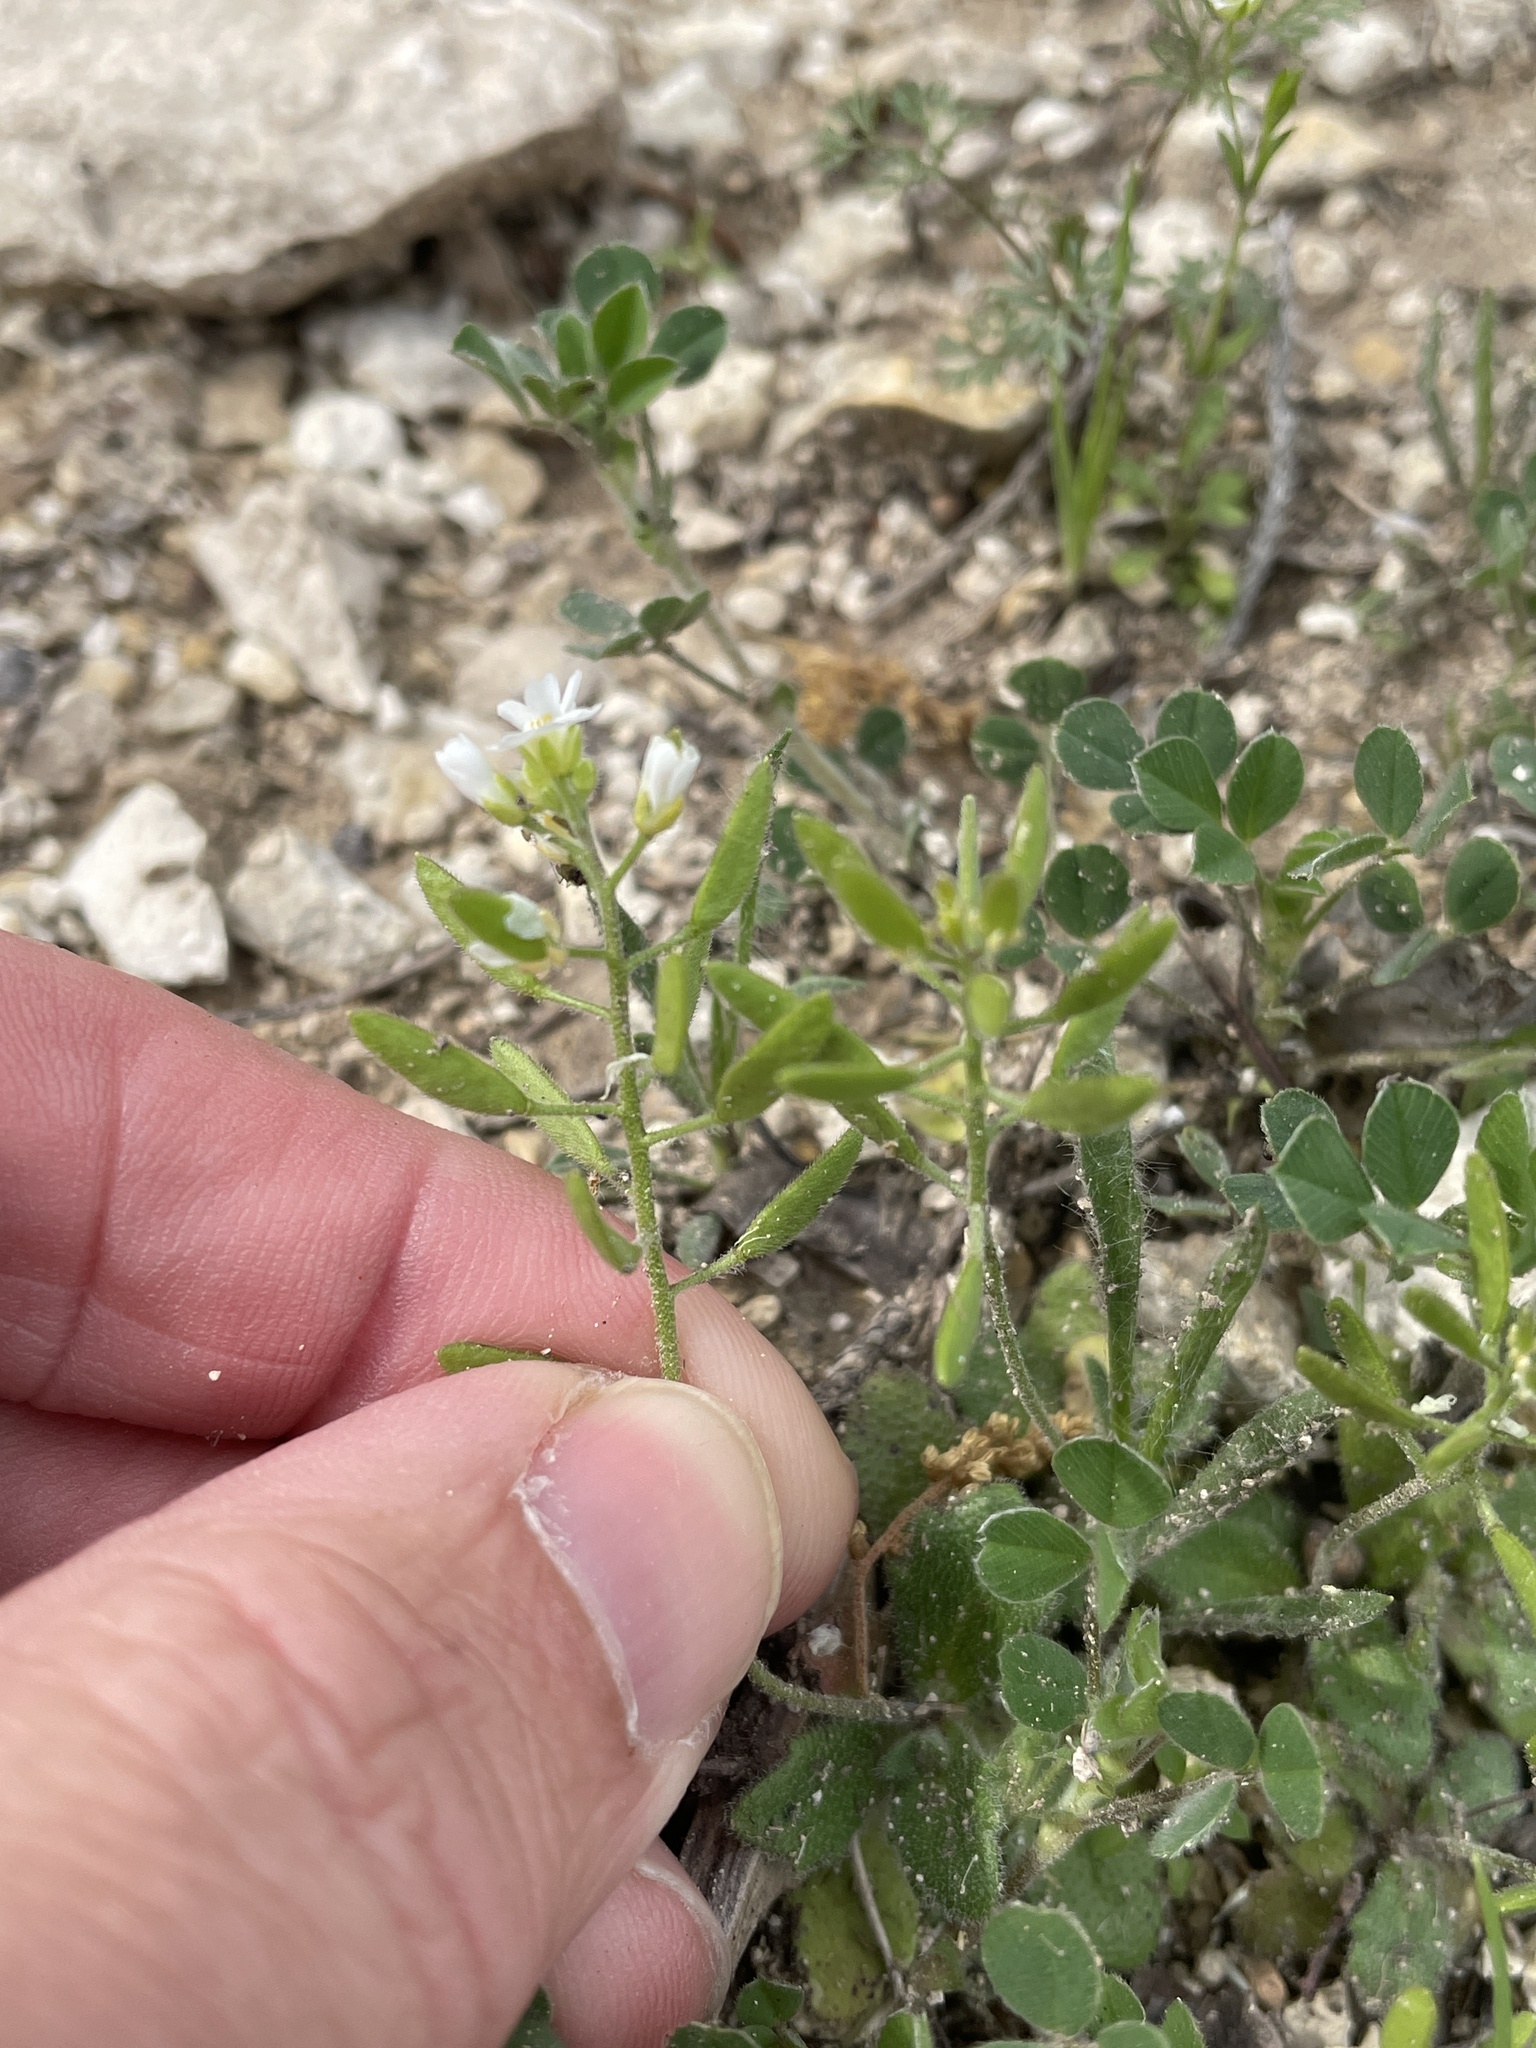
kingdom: Plantae
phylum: Tracheophyta
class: Magnoliopsida
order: Brassicales
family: Brassicaceae
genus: Tomostima
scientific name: Tomostima cuneifolia
